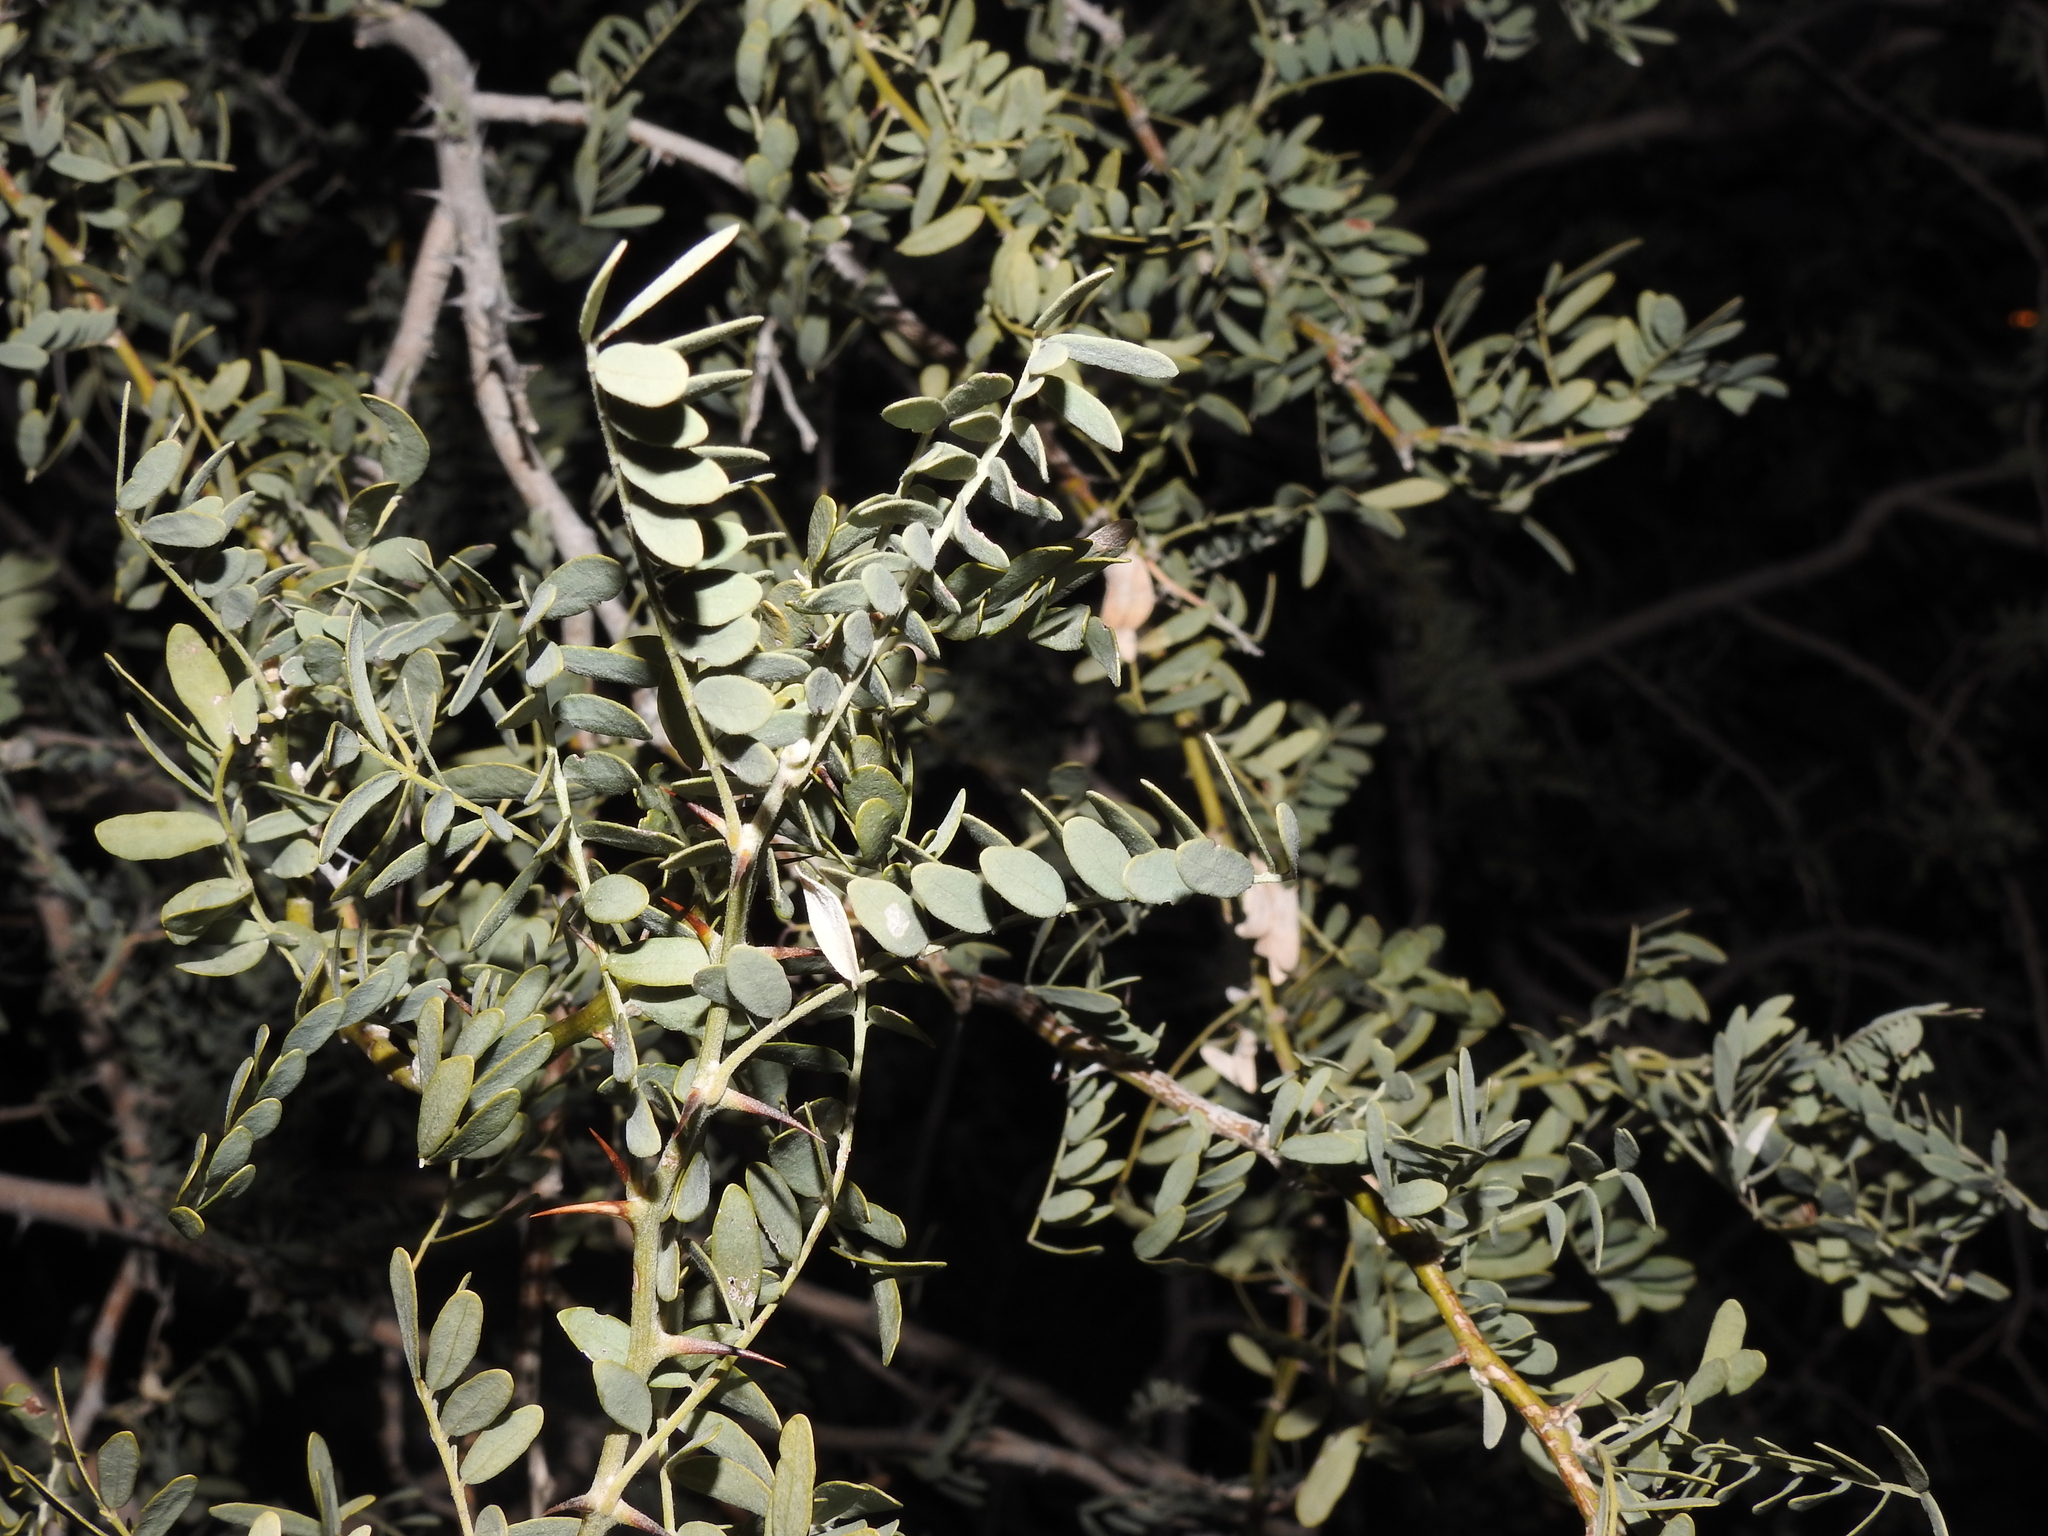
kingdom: Plantae
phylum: Tracheophyta
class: Magnoliopsida
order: Fabales
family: Fabaceae
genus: Olneya
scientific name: Olneya tesota
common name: Desert ironwood
